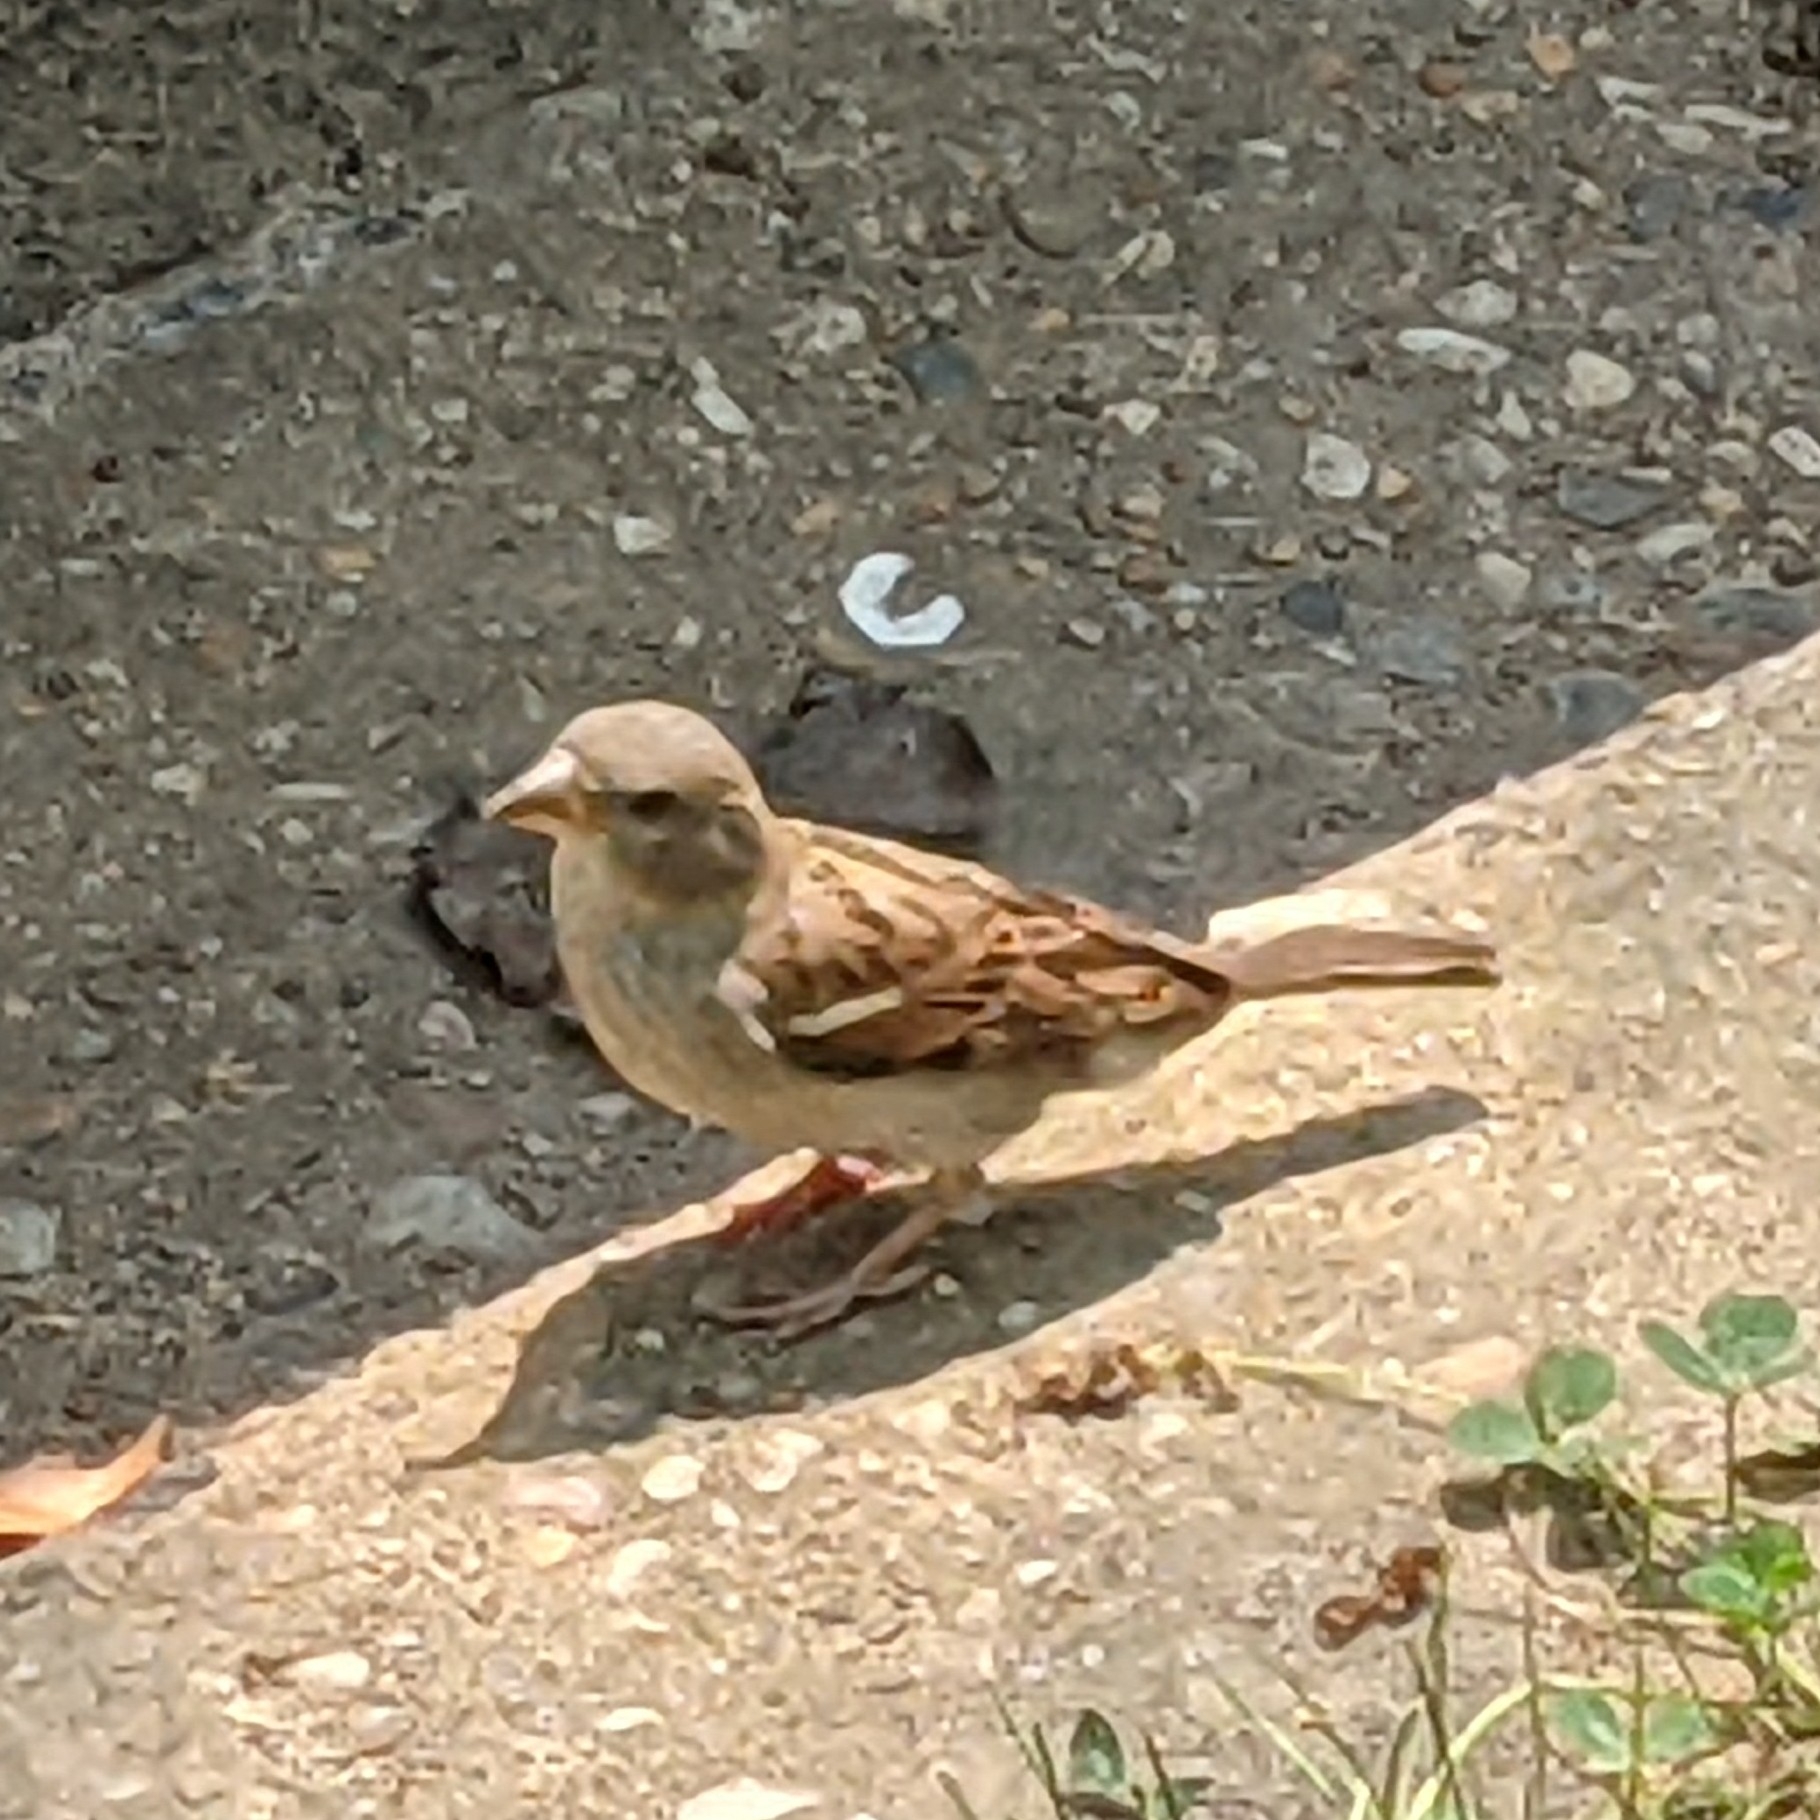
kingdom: Animalia
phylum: Chordata
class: Aves
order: Passeriformes
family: Passeridae
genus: Passer
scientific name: Passer domesticus
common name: House sparrow
